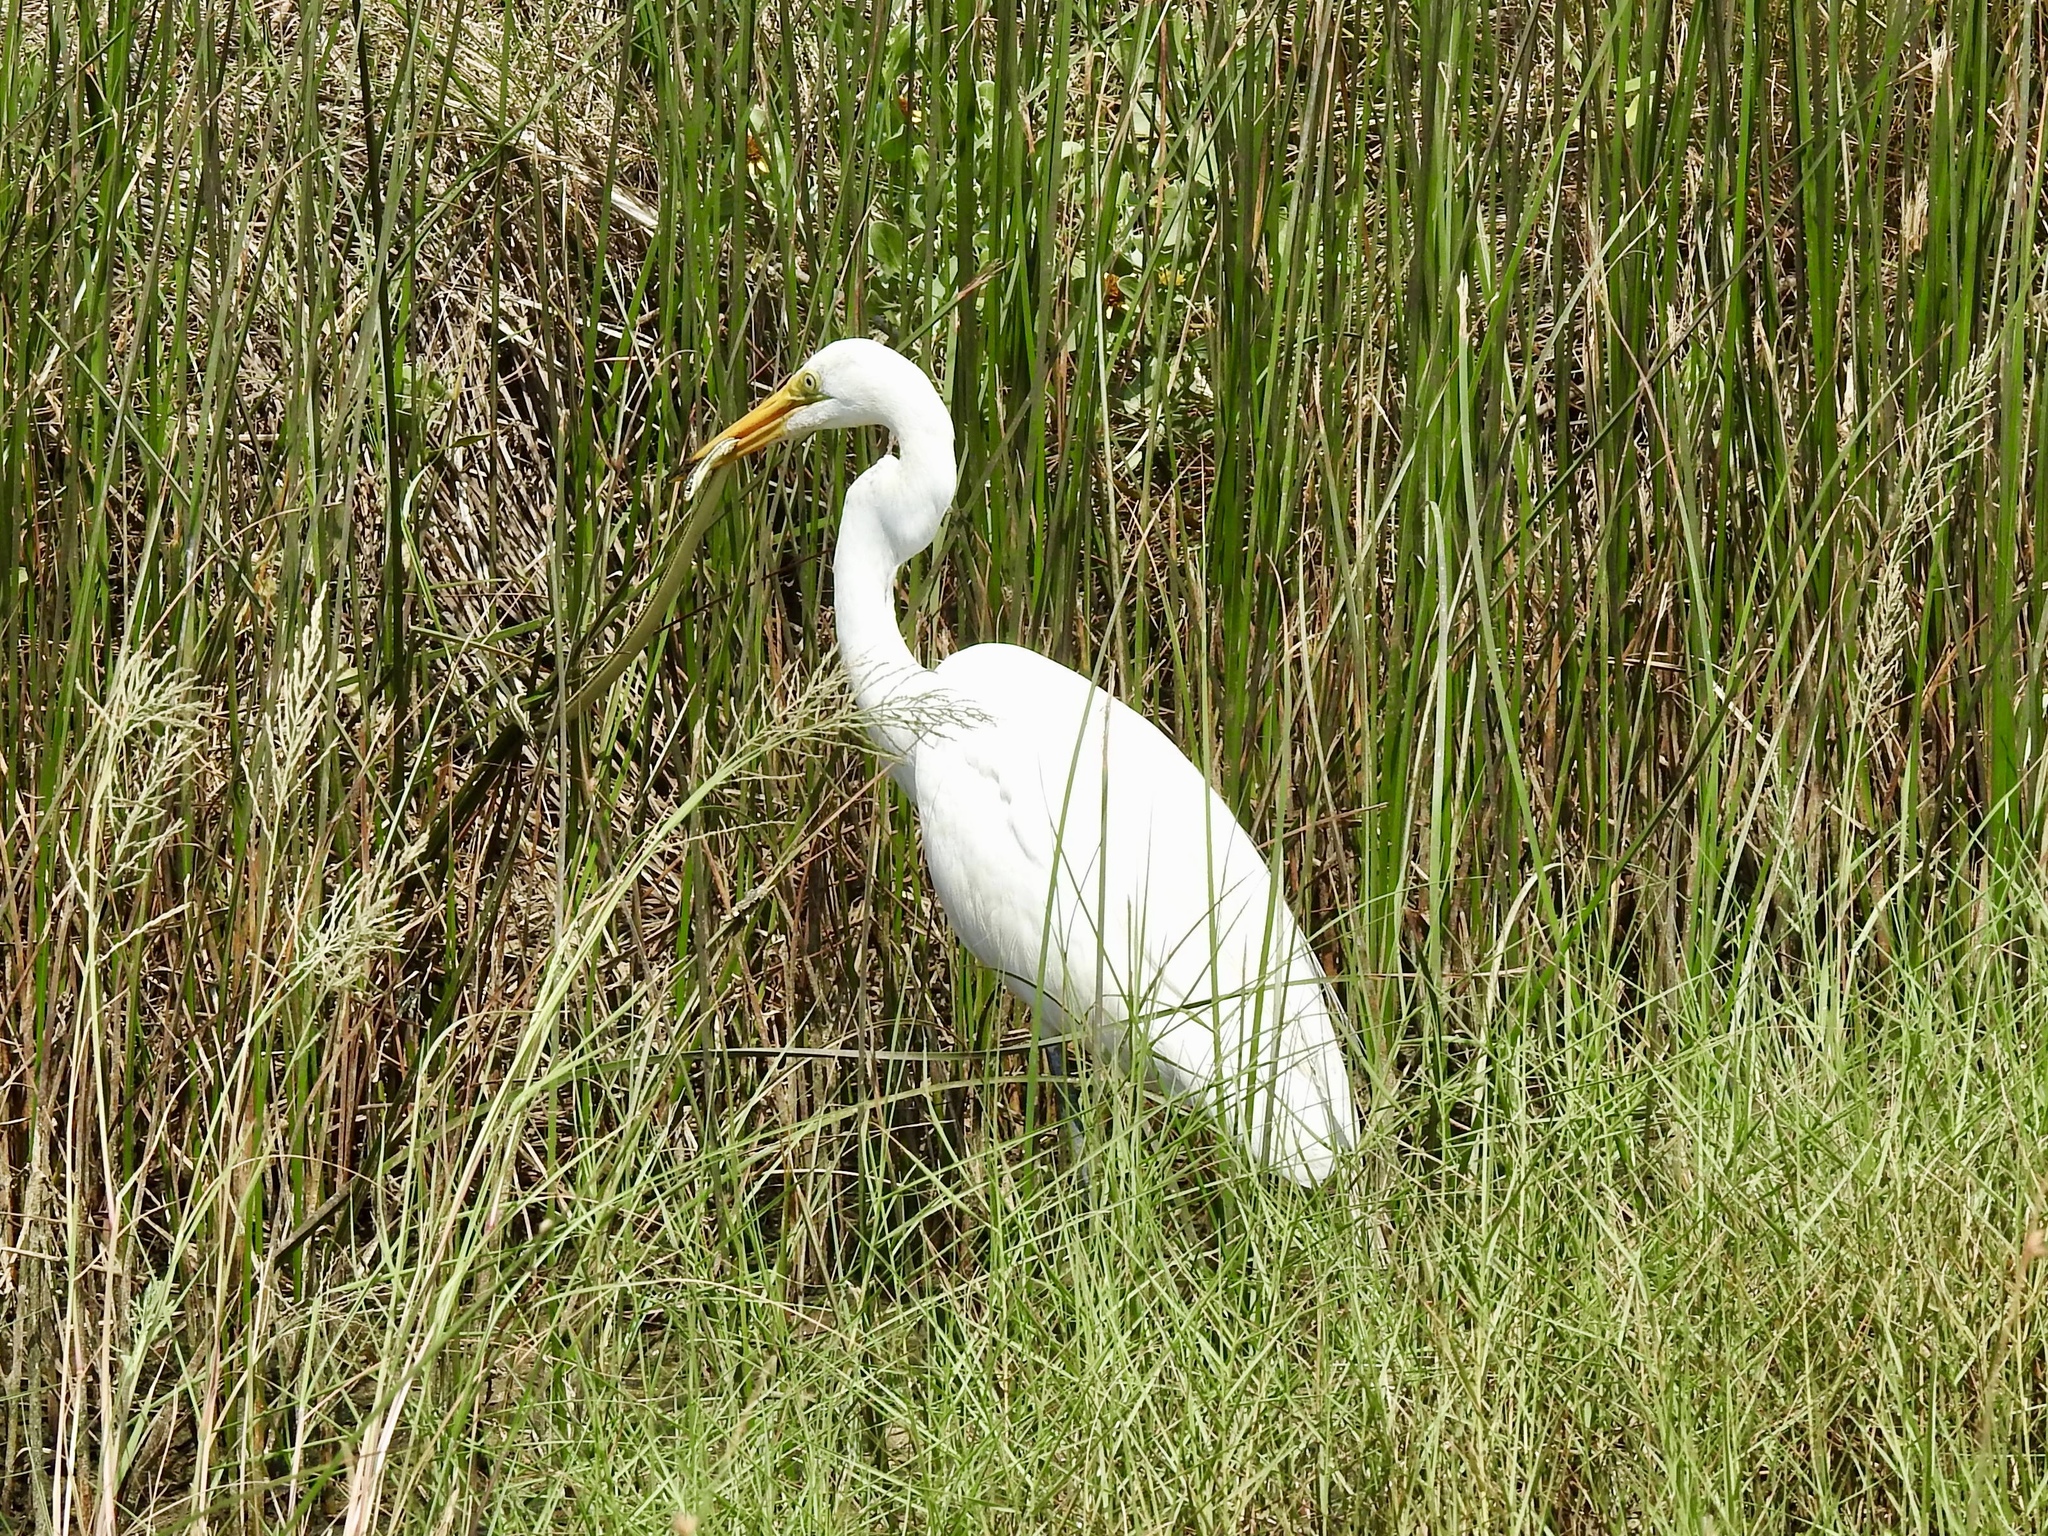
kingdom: Animalia
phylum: Chordata
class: Aves
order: Pelecaniformes
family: Ardeidae
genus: Ardea
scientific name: Ardea alba
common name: Great egret
